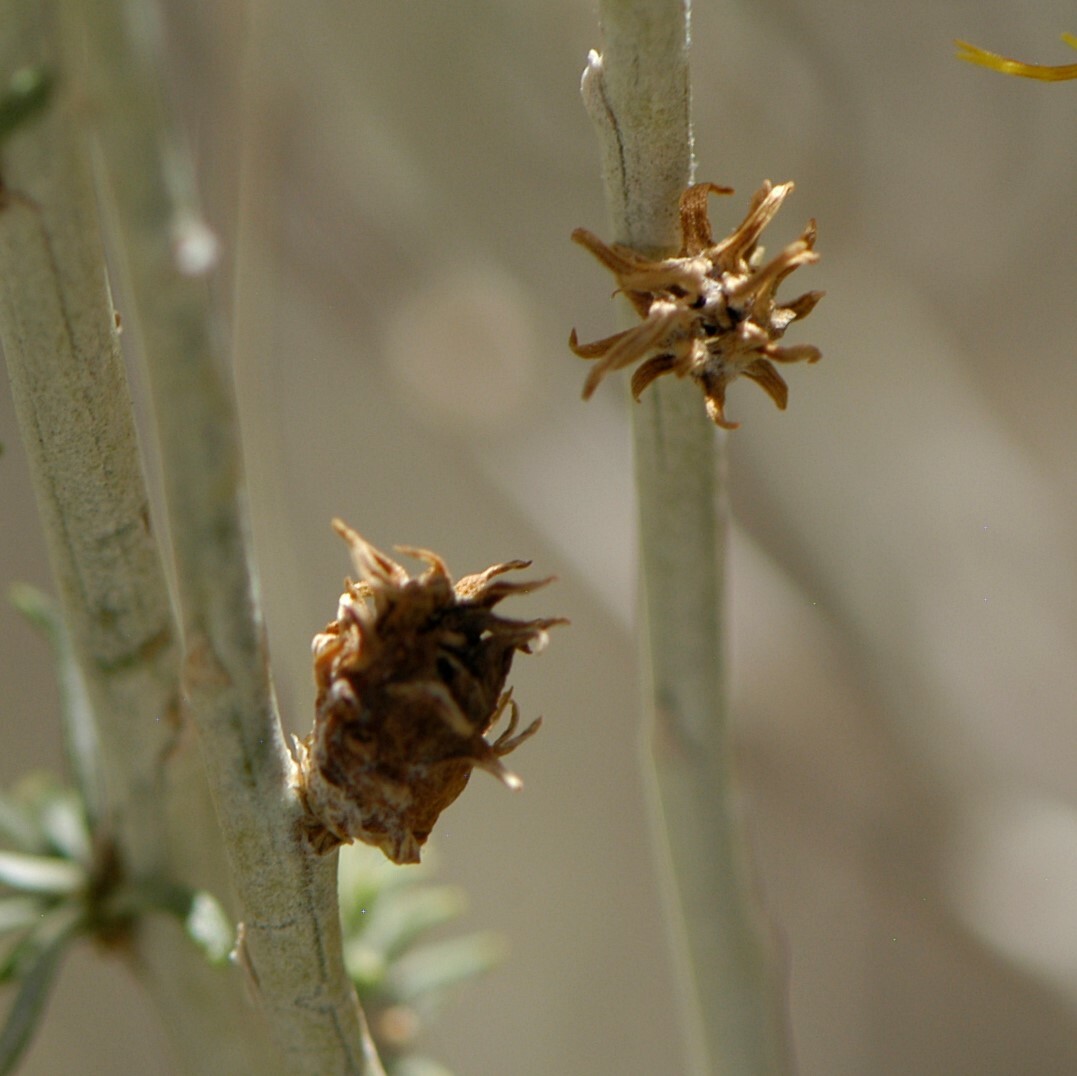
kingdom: Animalia
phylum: Arthropoda
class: Insecta
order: Diptera
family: Cecidomyiidae
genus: Rhopalomyia
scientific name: Rhopalomyia utahensis
